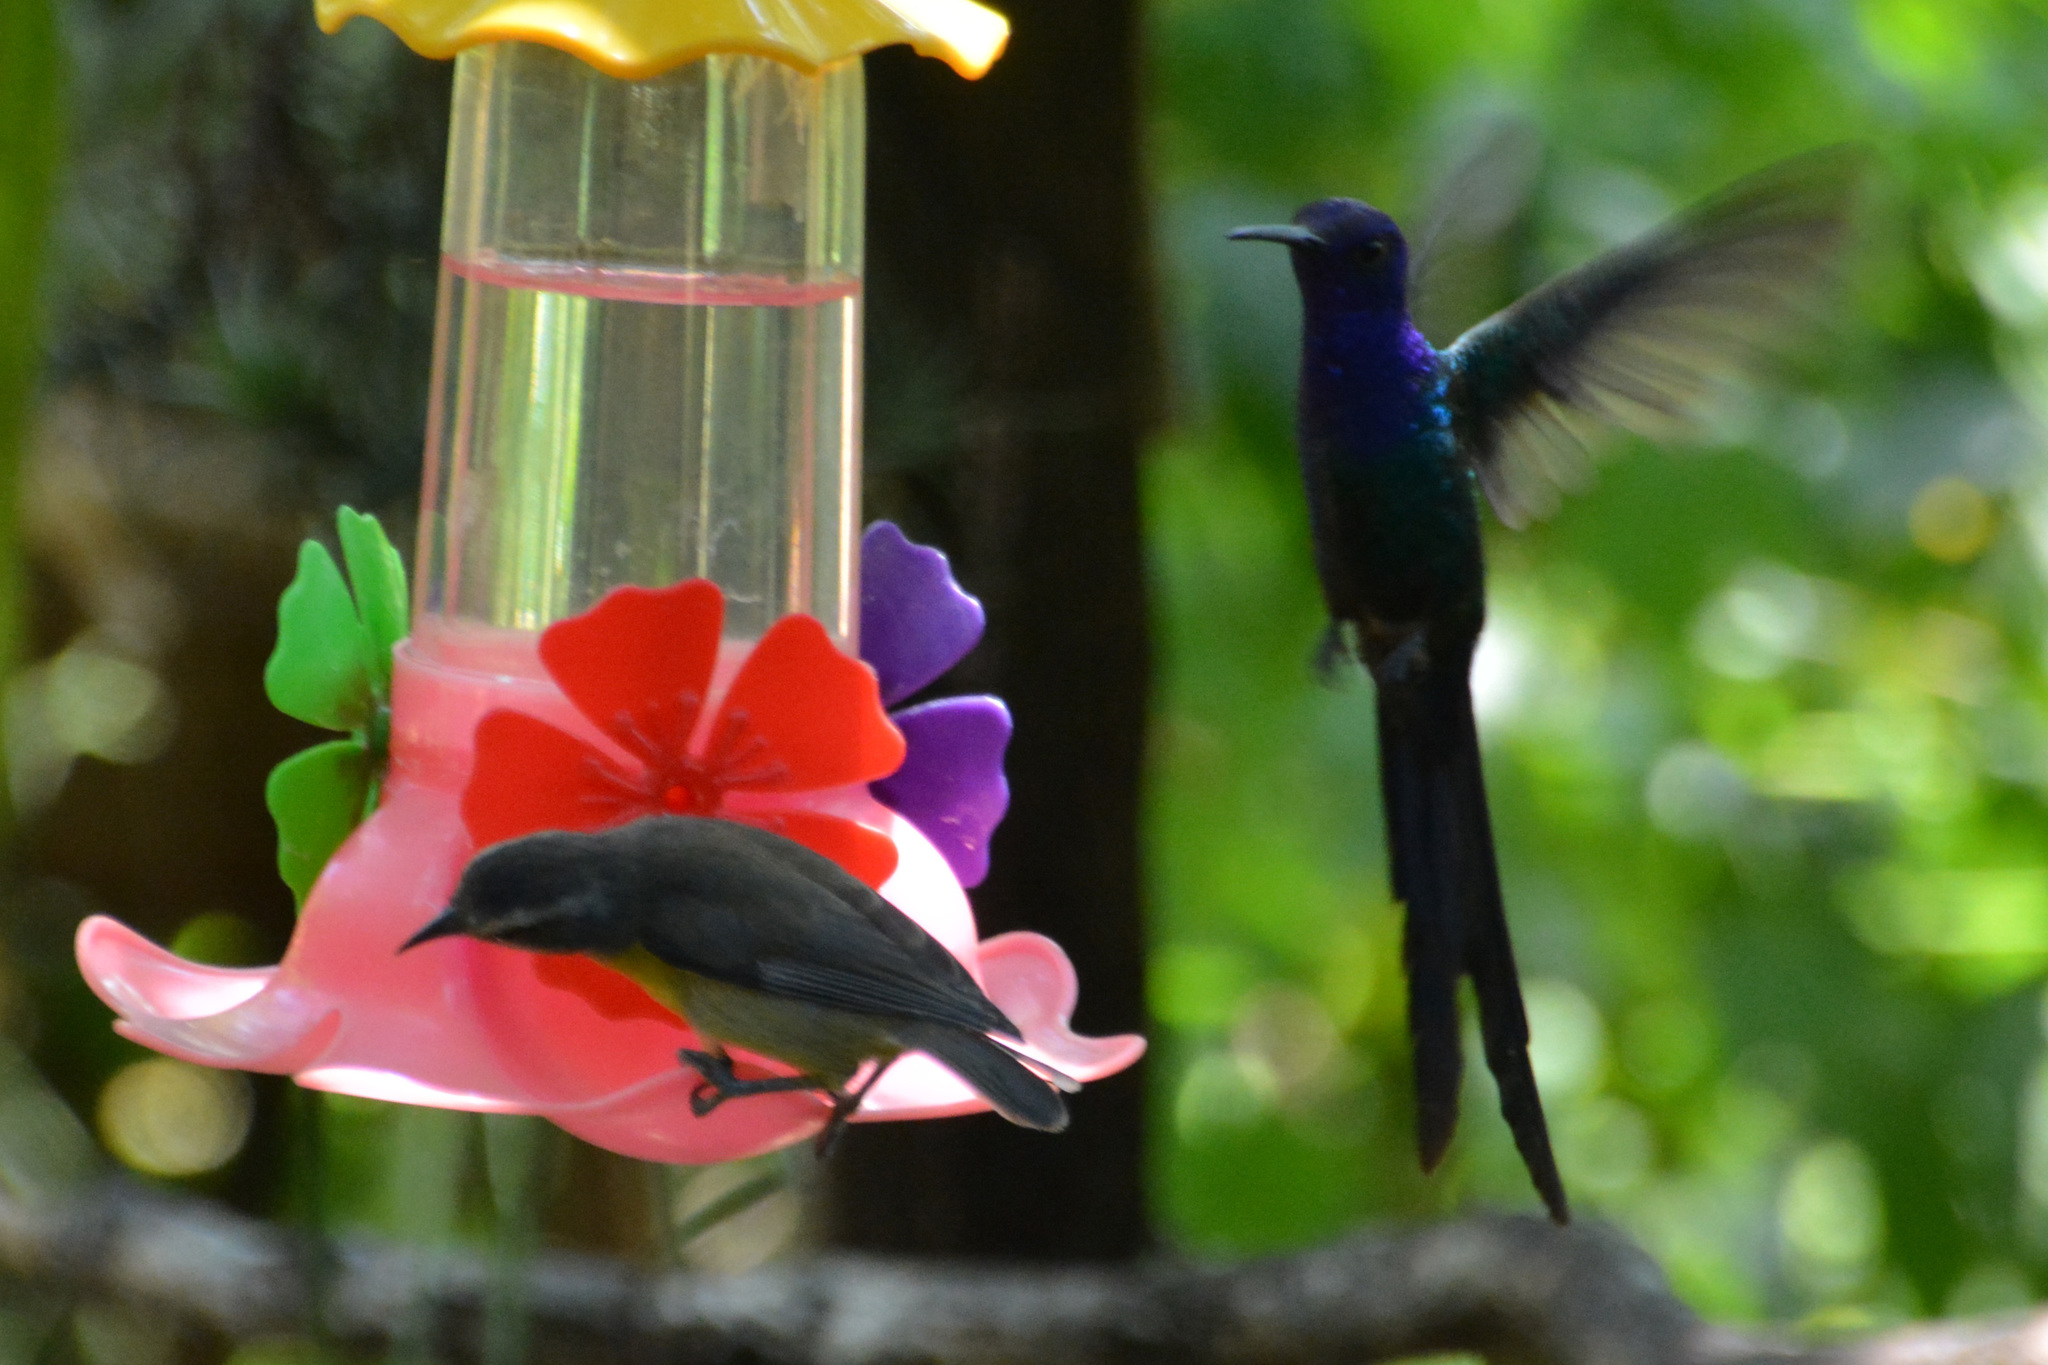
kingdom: Animalia
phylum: Chordata
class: Aves
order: Apodiformes
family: Trochilidae
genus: Eupetomena
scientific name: Eupetomena macroura
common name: Swallow-tailed hummingbird
